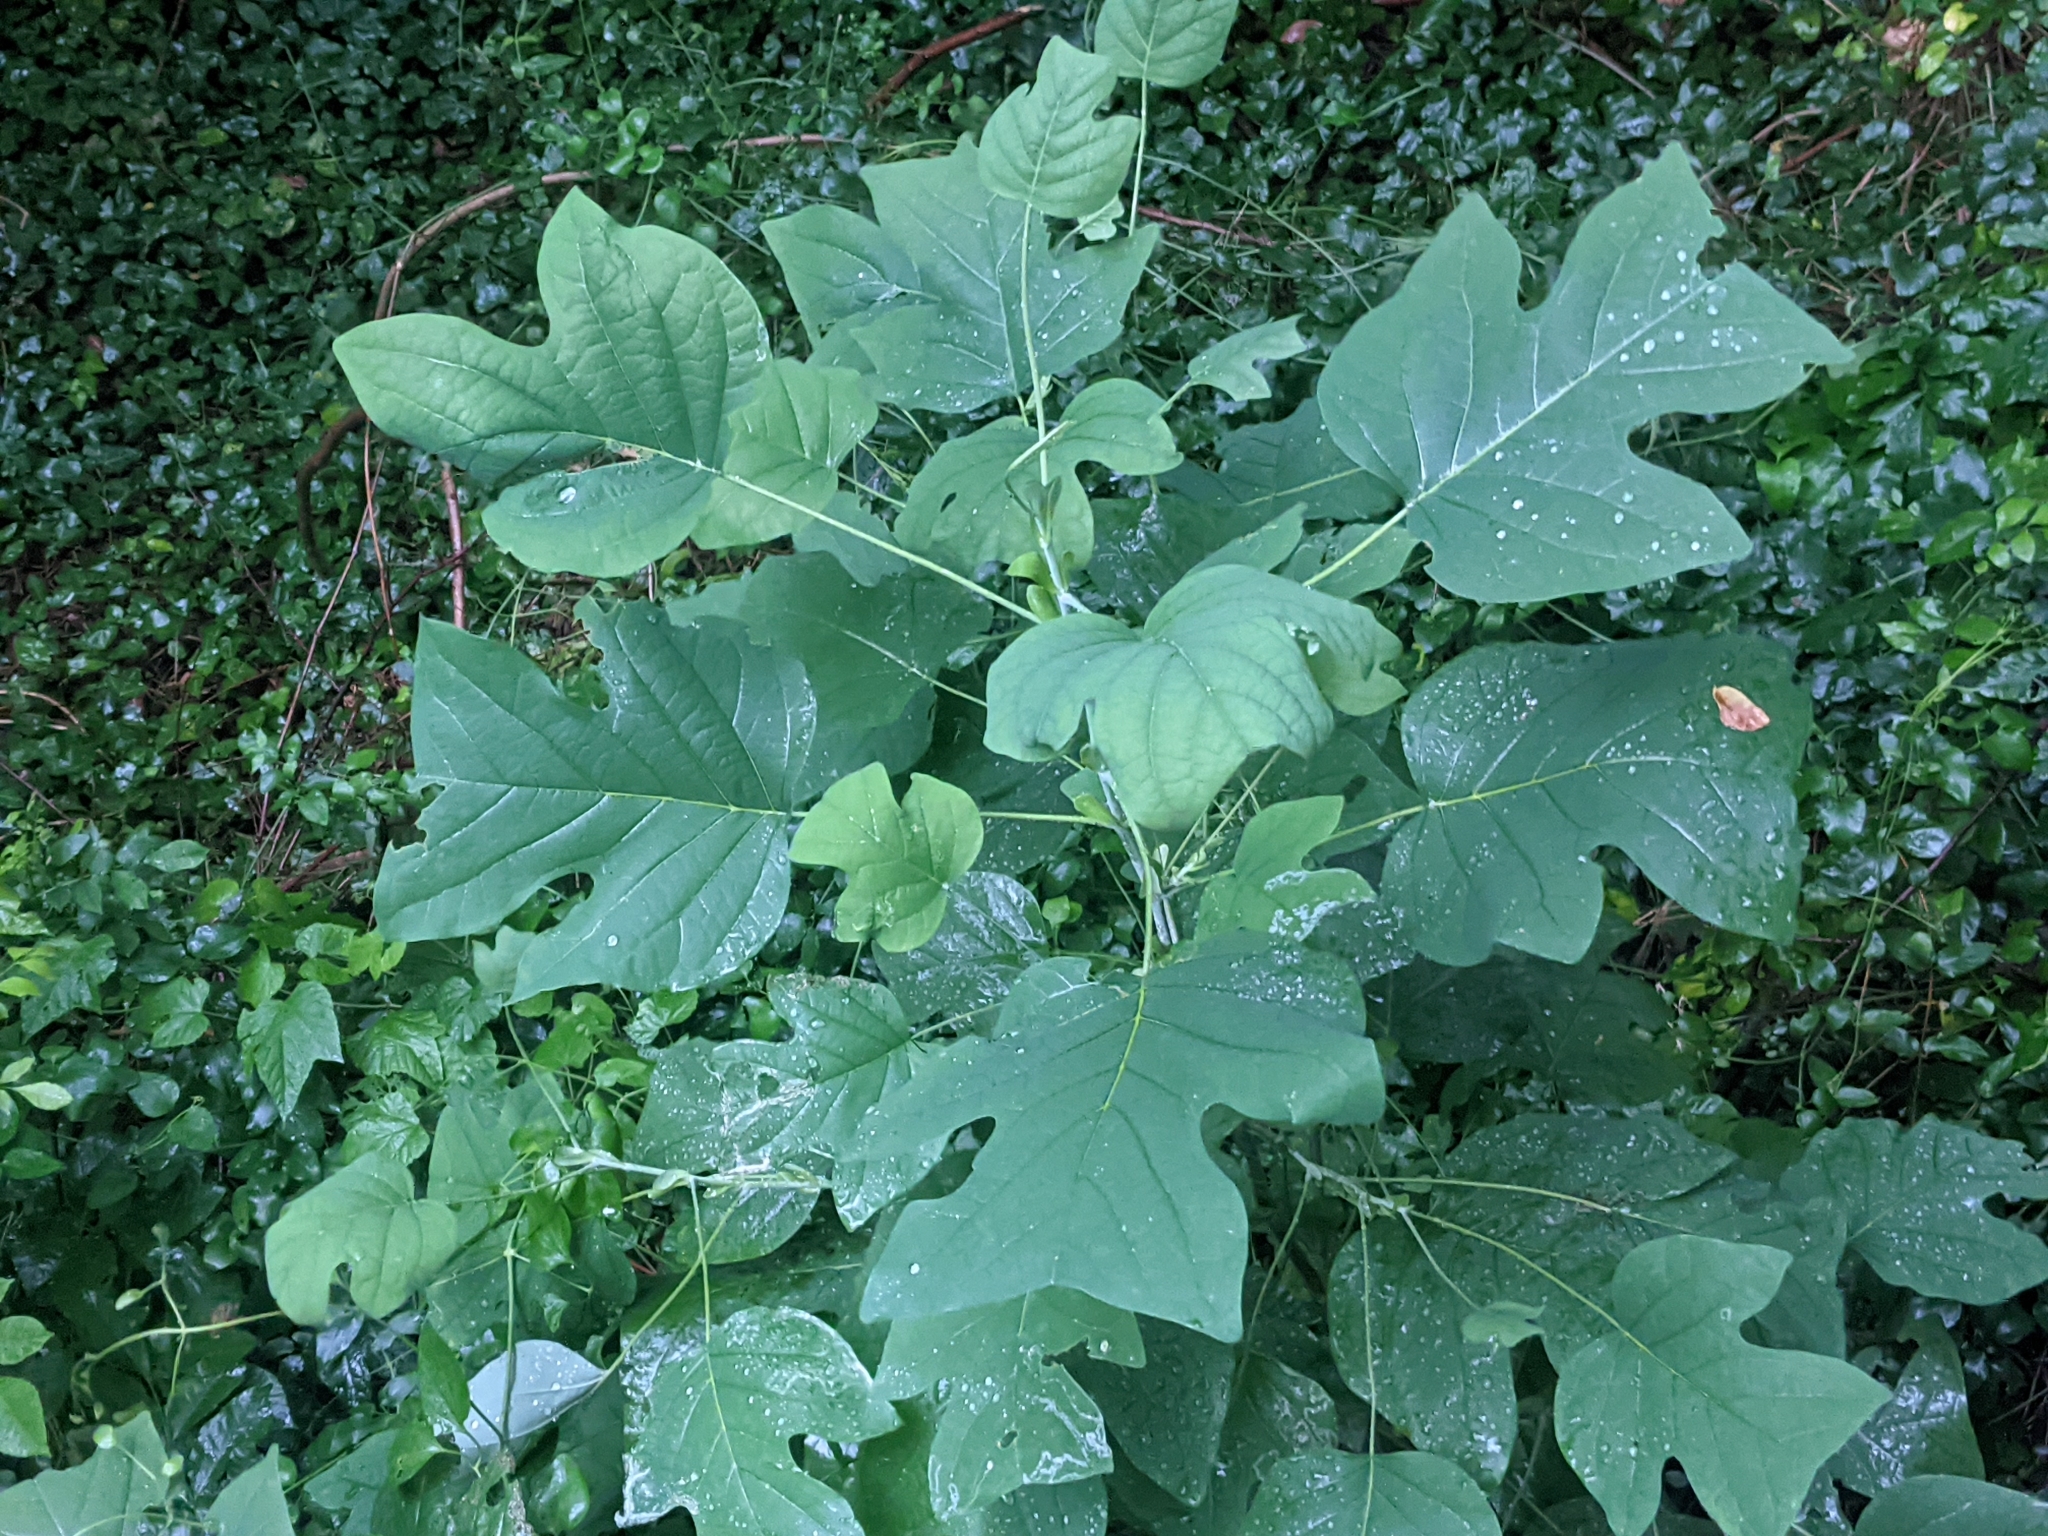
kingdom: Plantae
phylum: Tracheophyta
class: Magnoliopsida
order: Magnoliales
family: Magnoliaceae
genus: Liriodendron
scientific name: Liriodendron tulipifera
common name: Tulip tree
